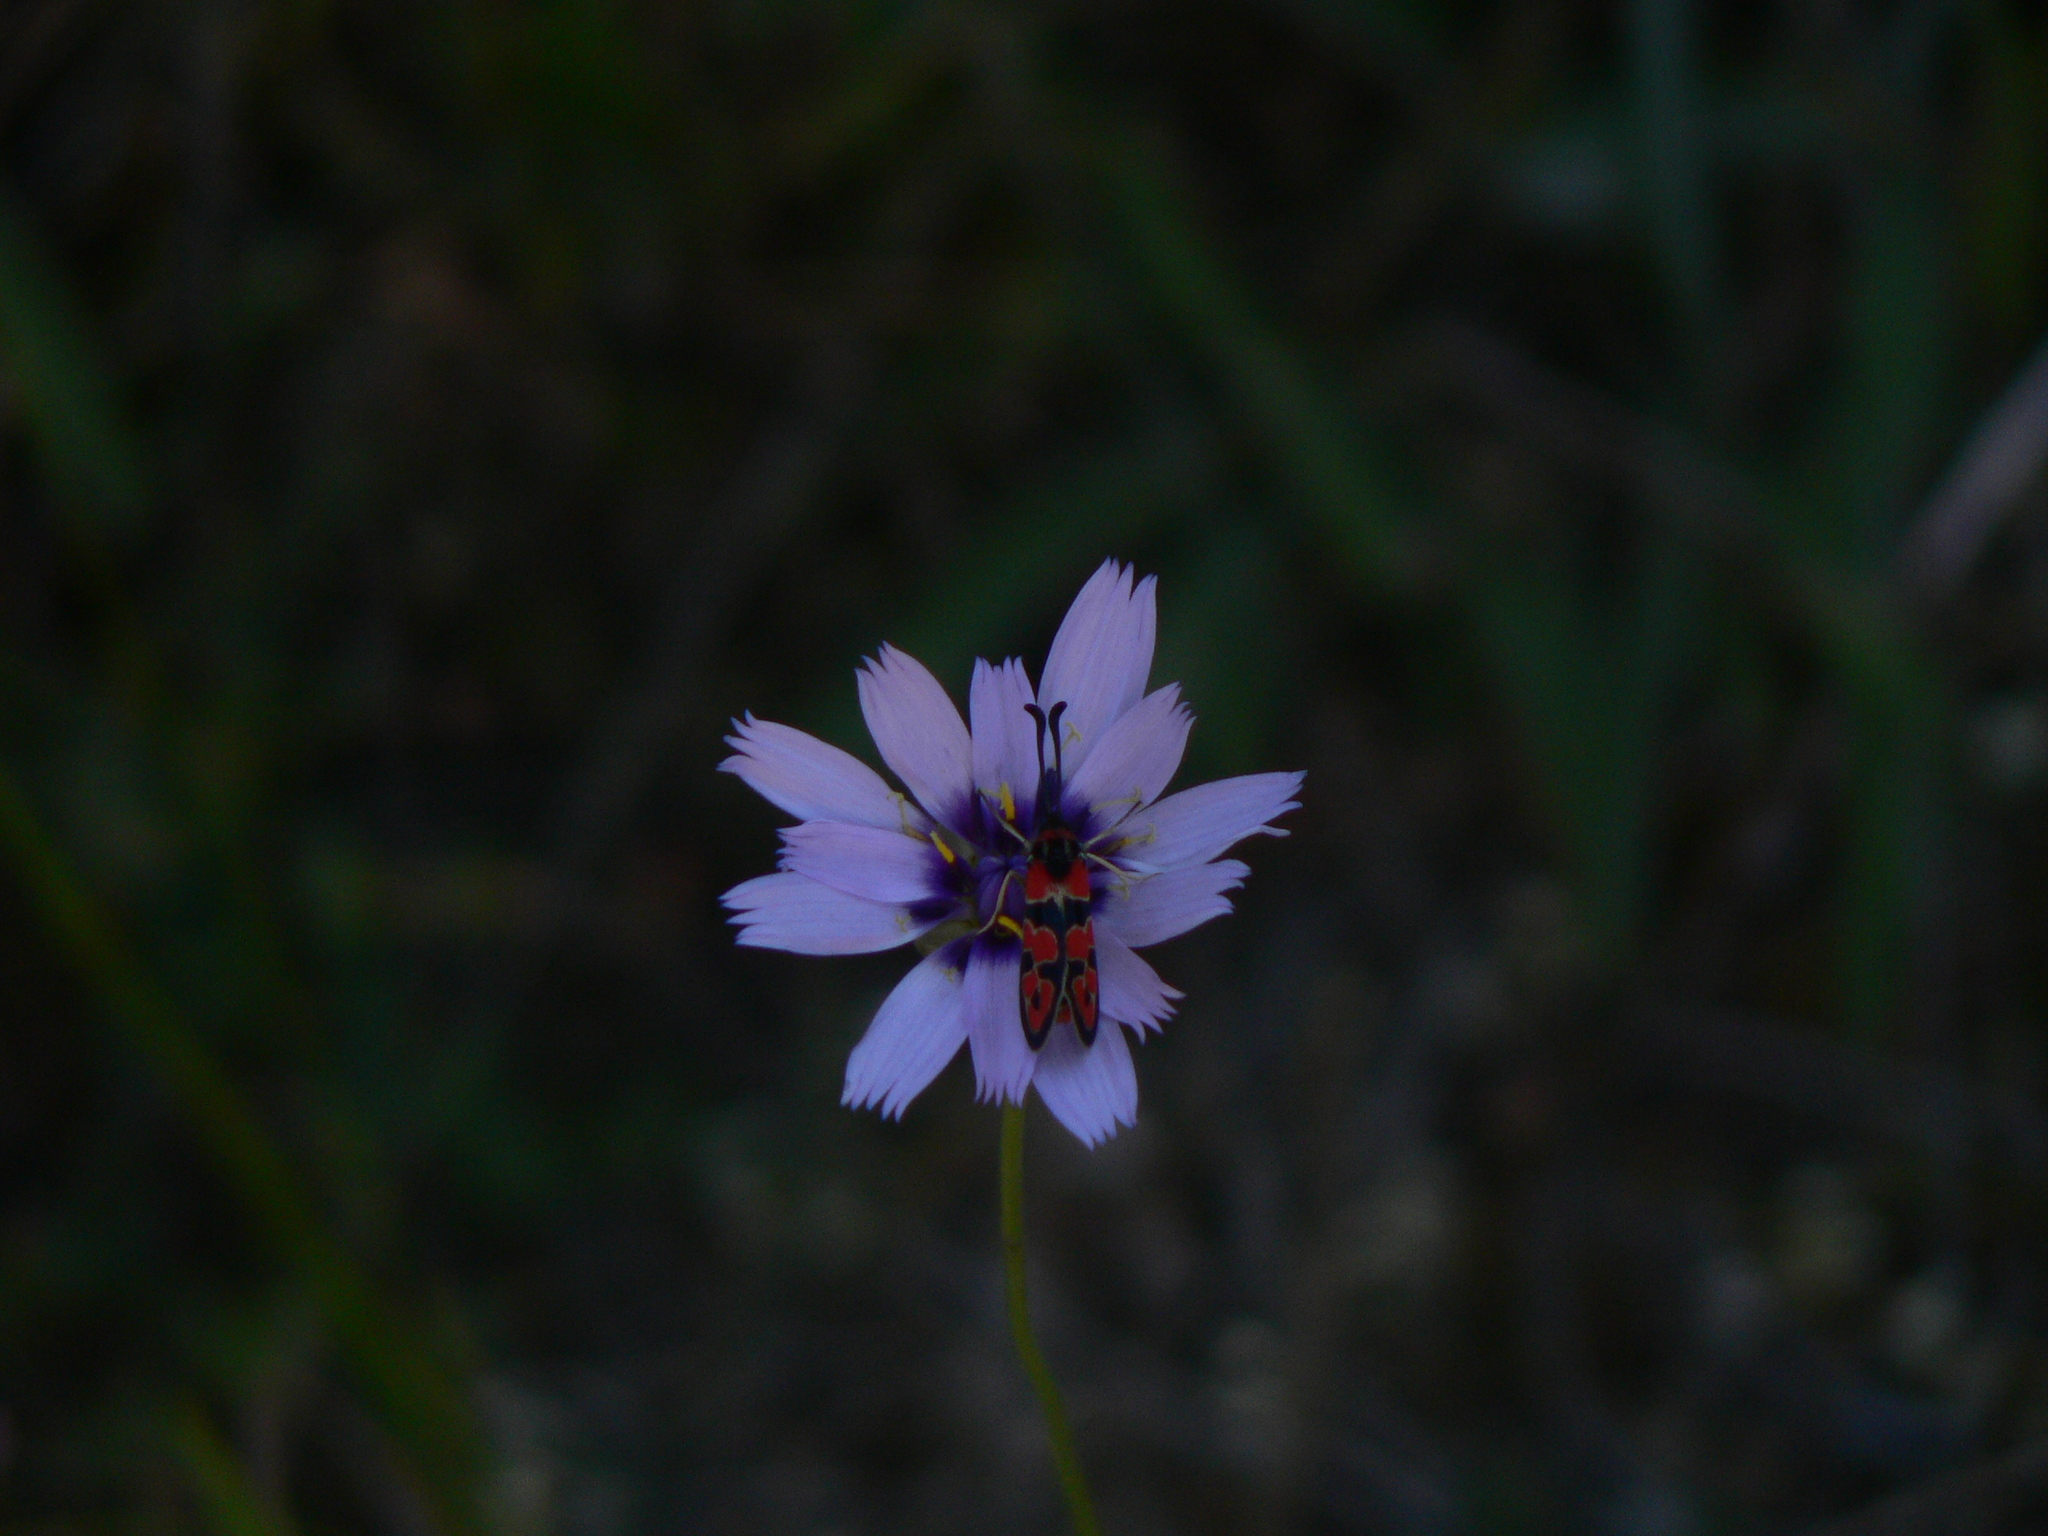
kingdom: Animalia
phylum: Arthropoda
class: Insecta
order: Lepidoptera
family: Zygaenidae
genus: Zygaena
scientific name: Zygaena fausta
